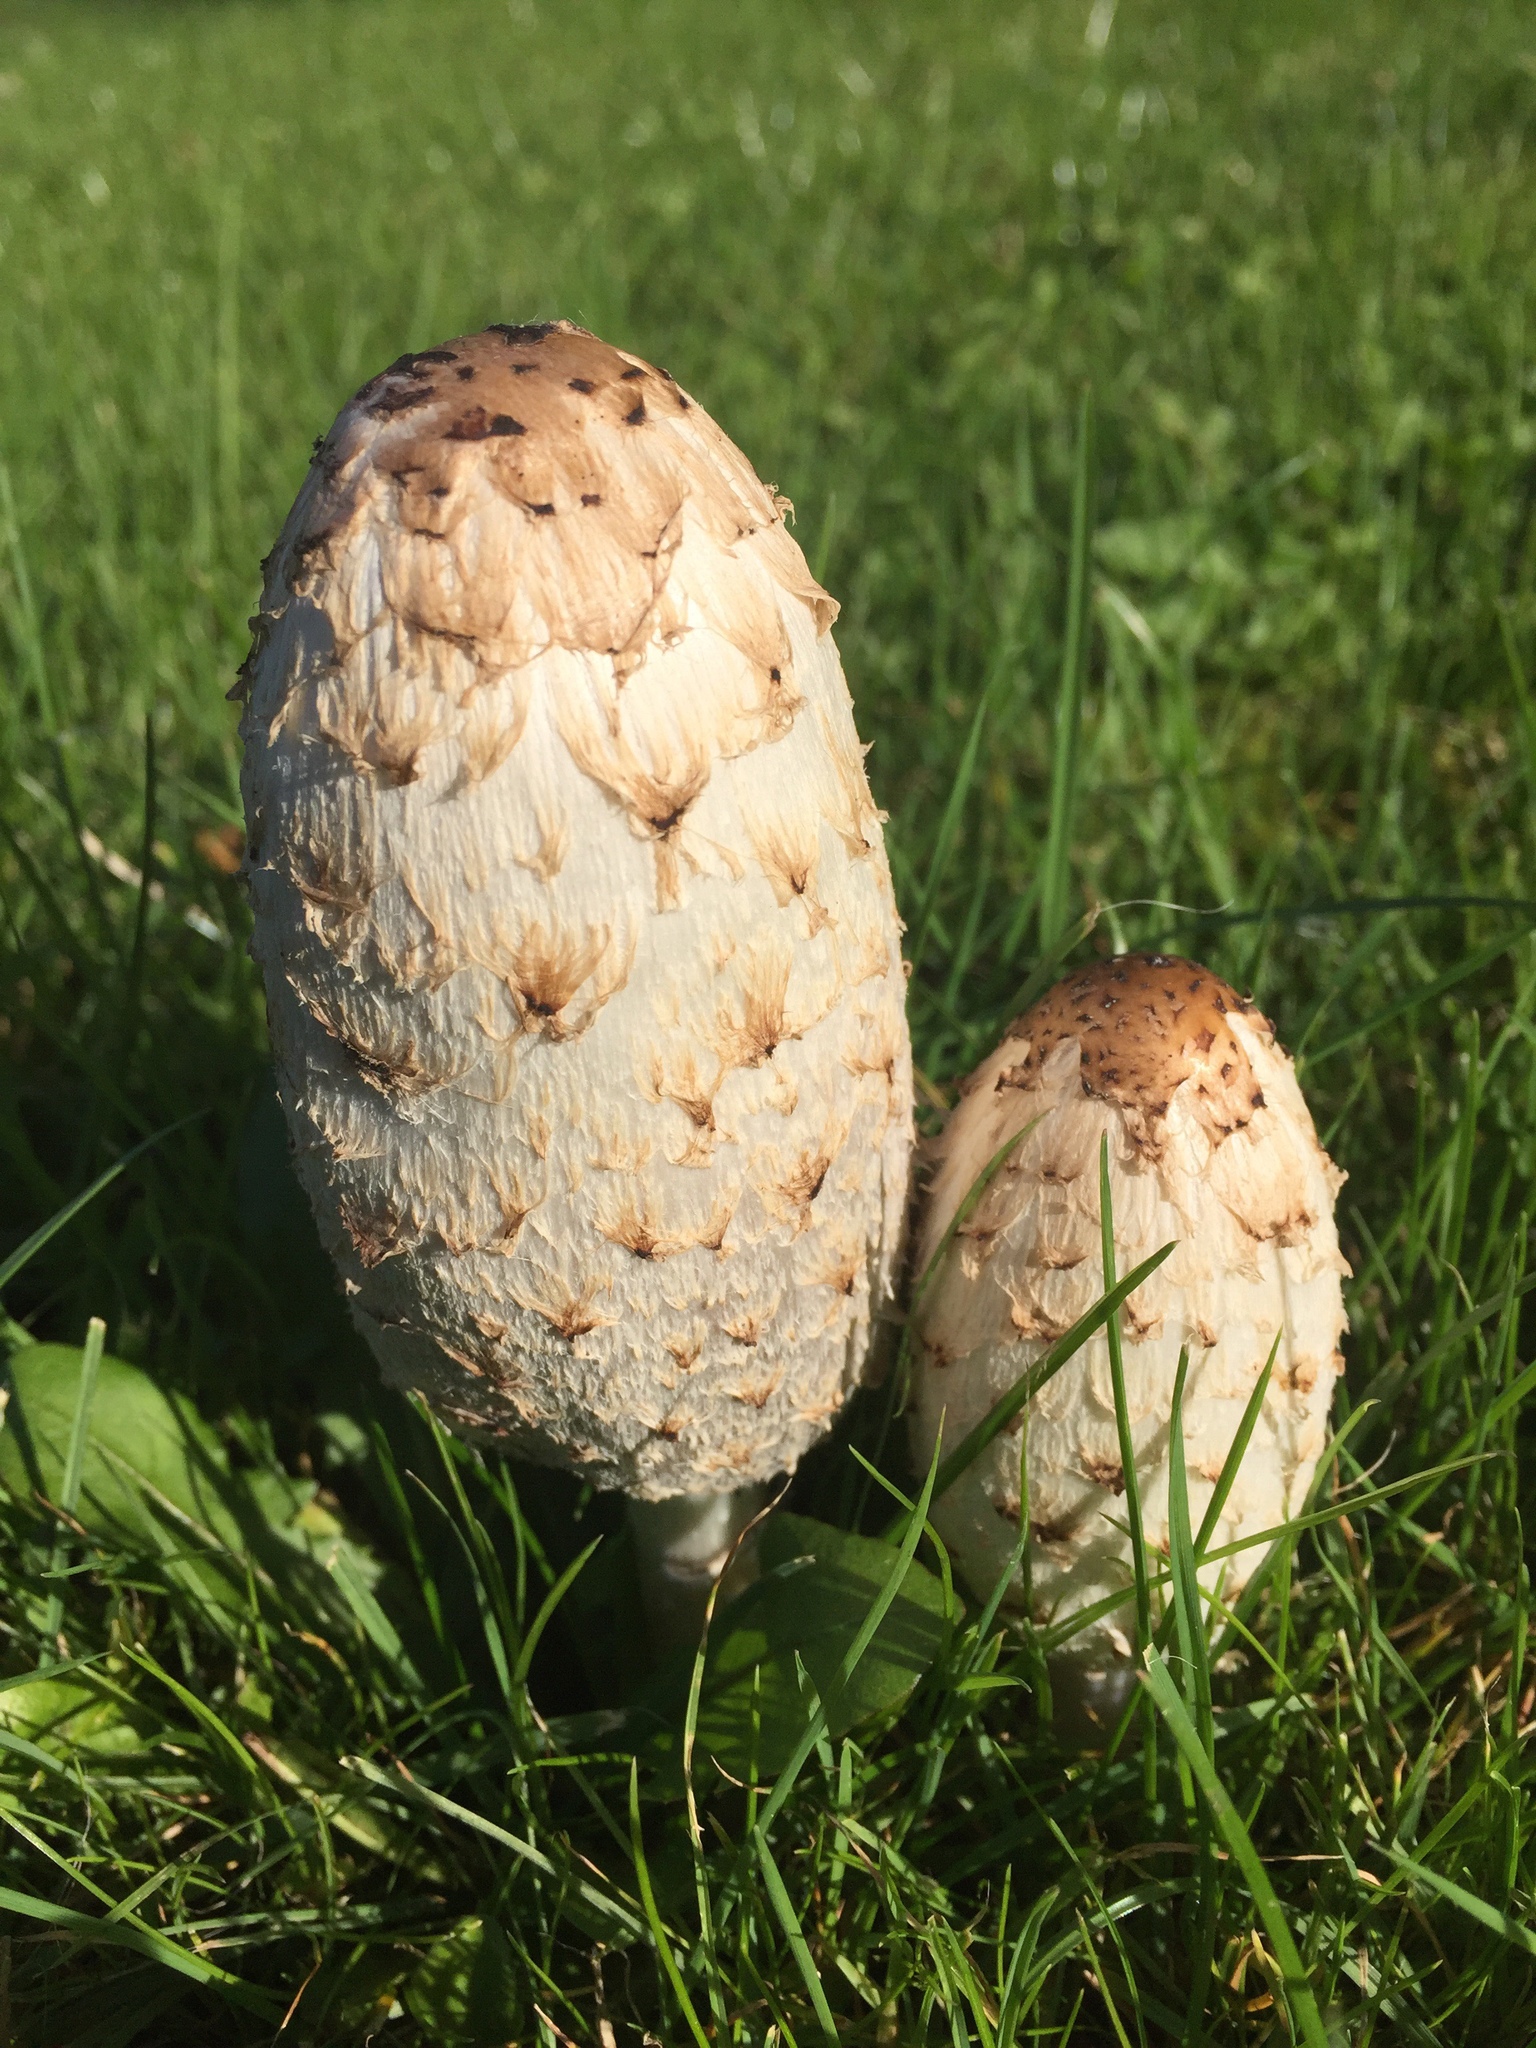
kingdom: Fungi
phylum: Basidiomycota
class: Agaricomycetes
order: Agaricales
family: Agaricaceae
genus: Coprinus
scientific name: Coprinus comatus
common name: Lawyer's wig
